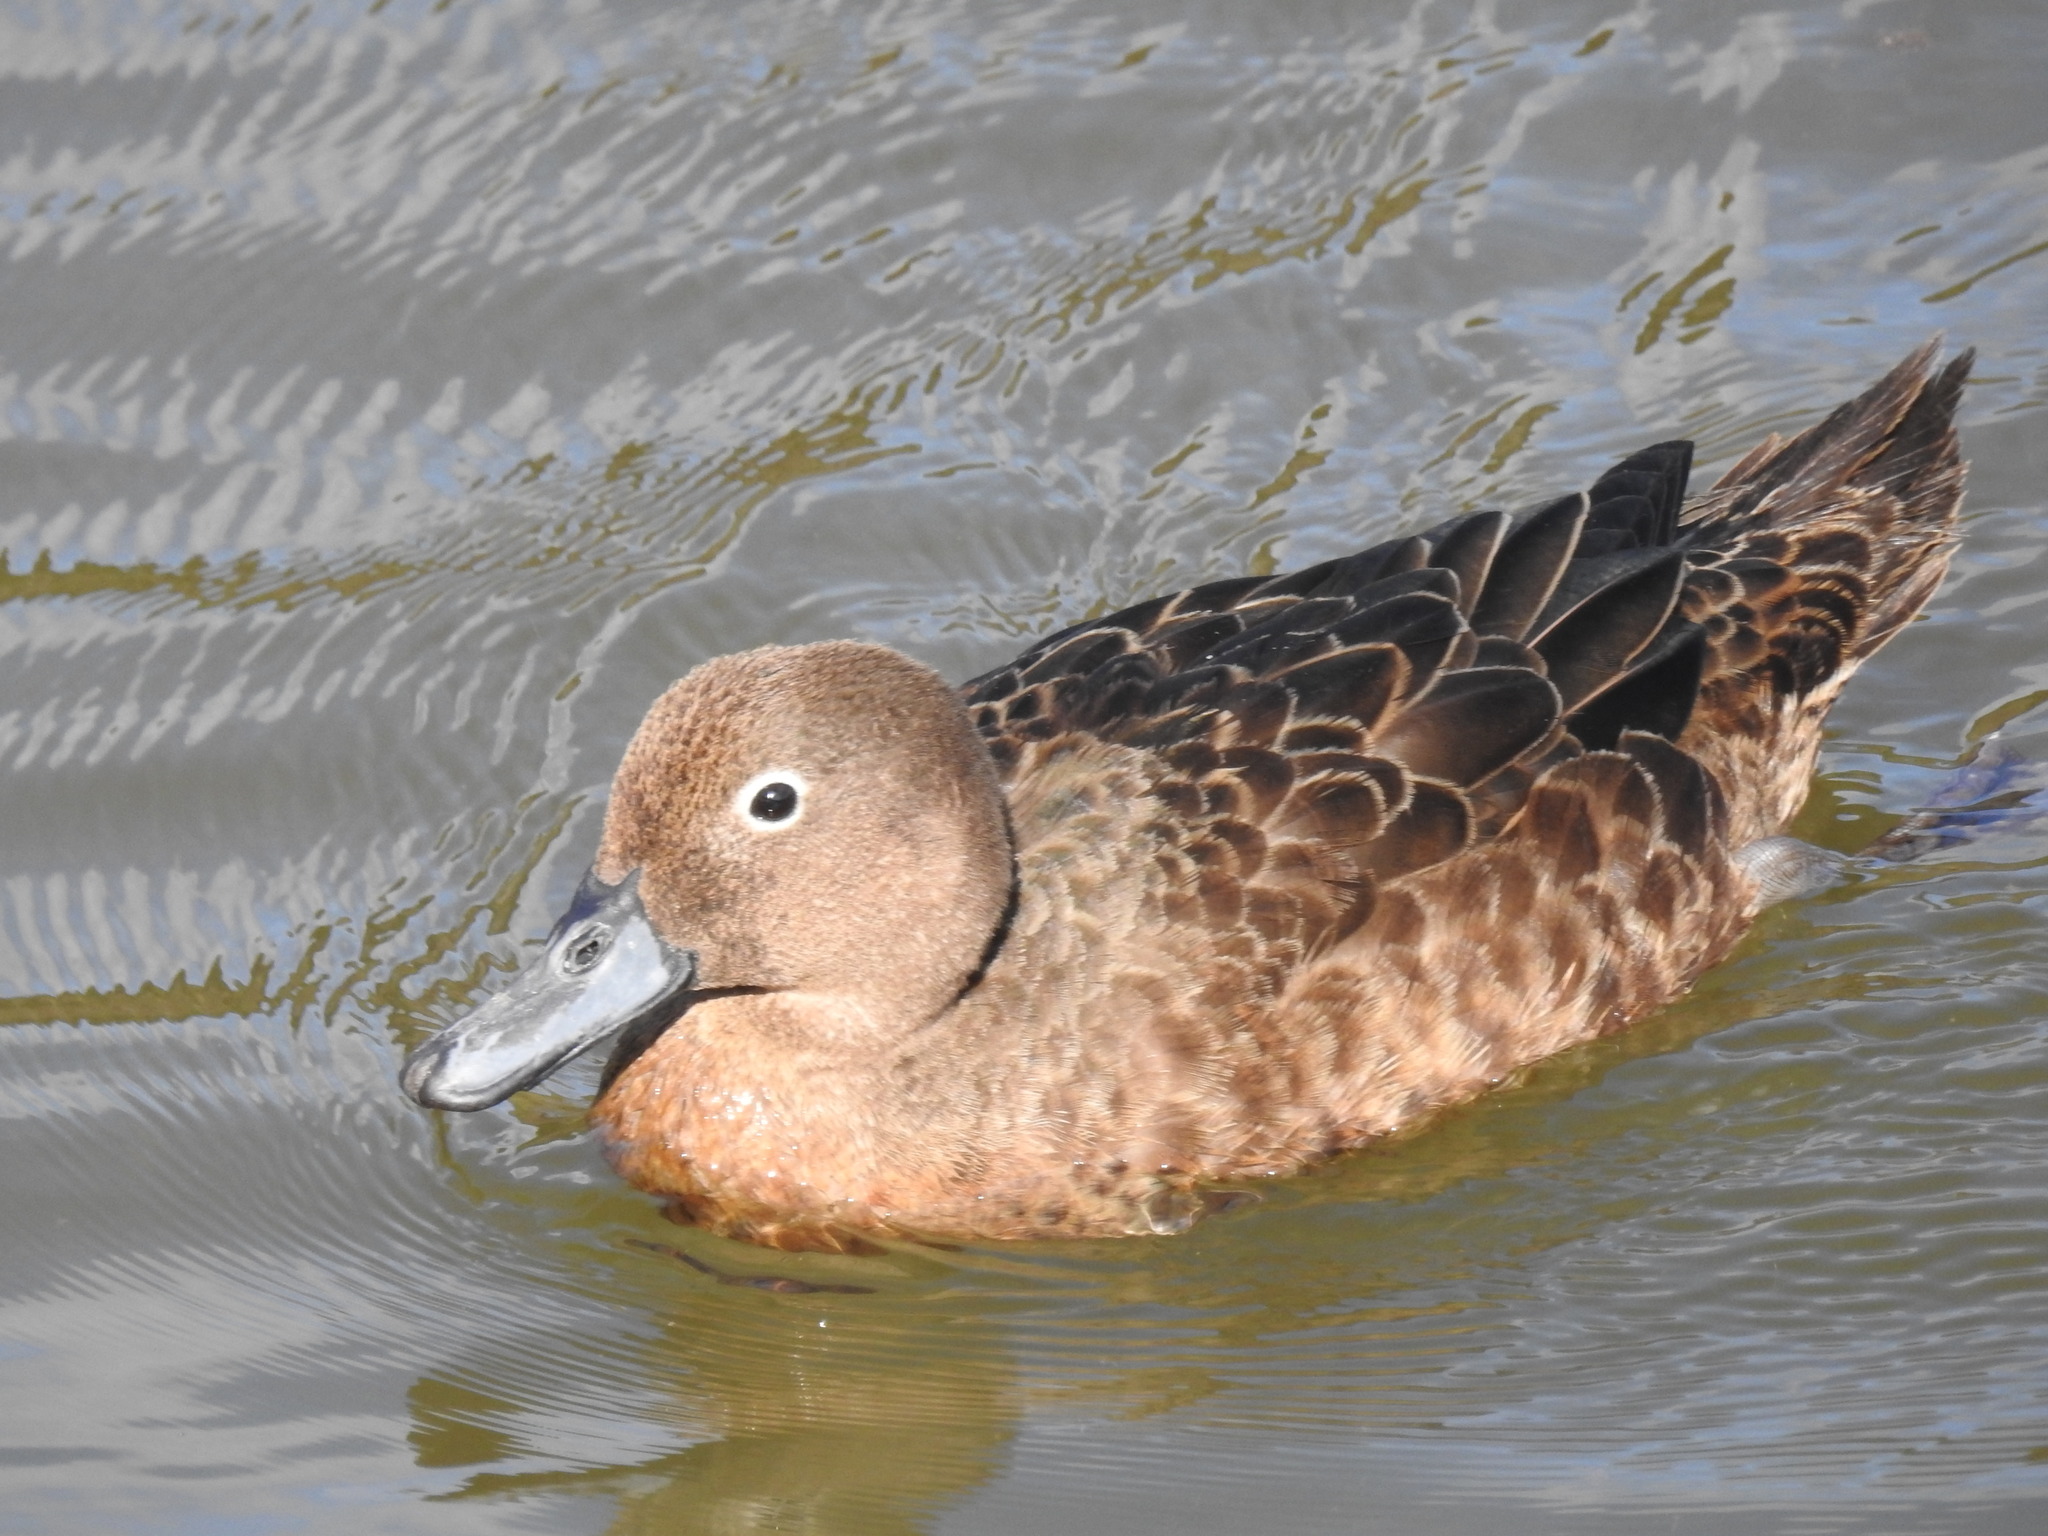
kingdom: Animalia
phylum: Chordata
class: Aves
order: Anseriformes
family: Anatidae
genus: Anas
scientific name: Anas chlorotis
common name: Brown teal
